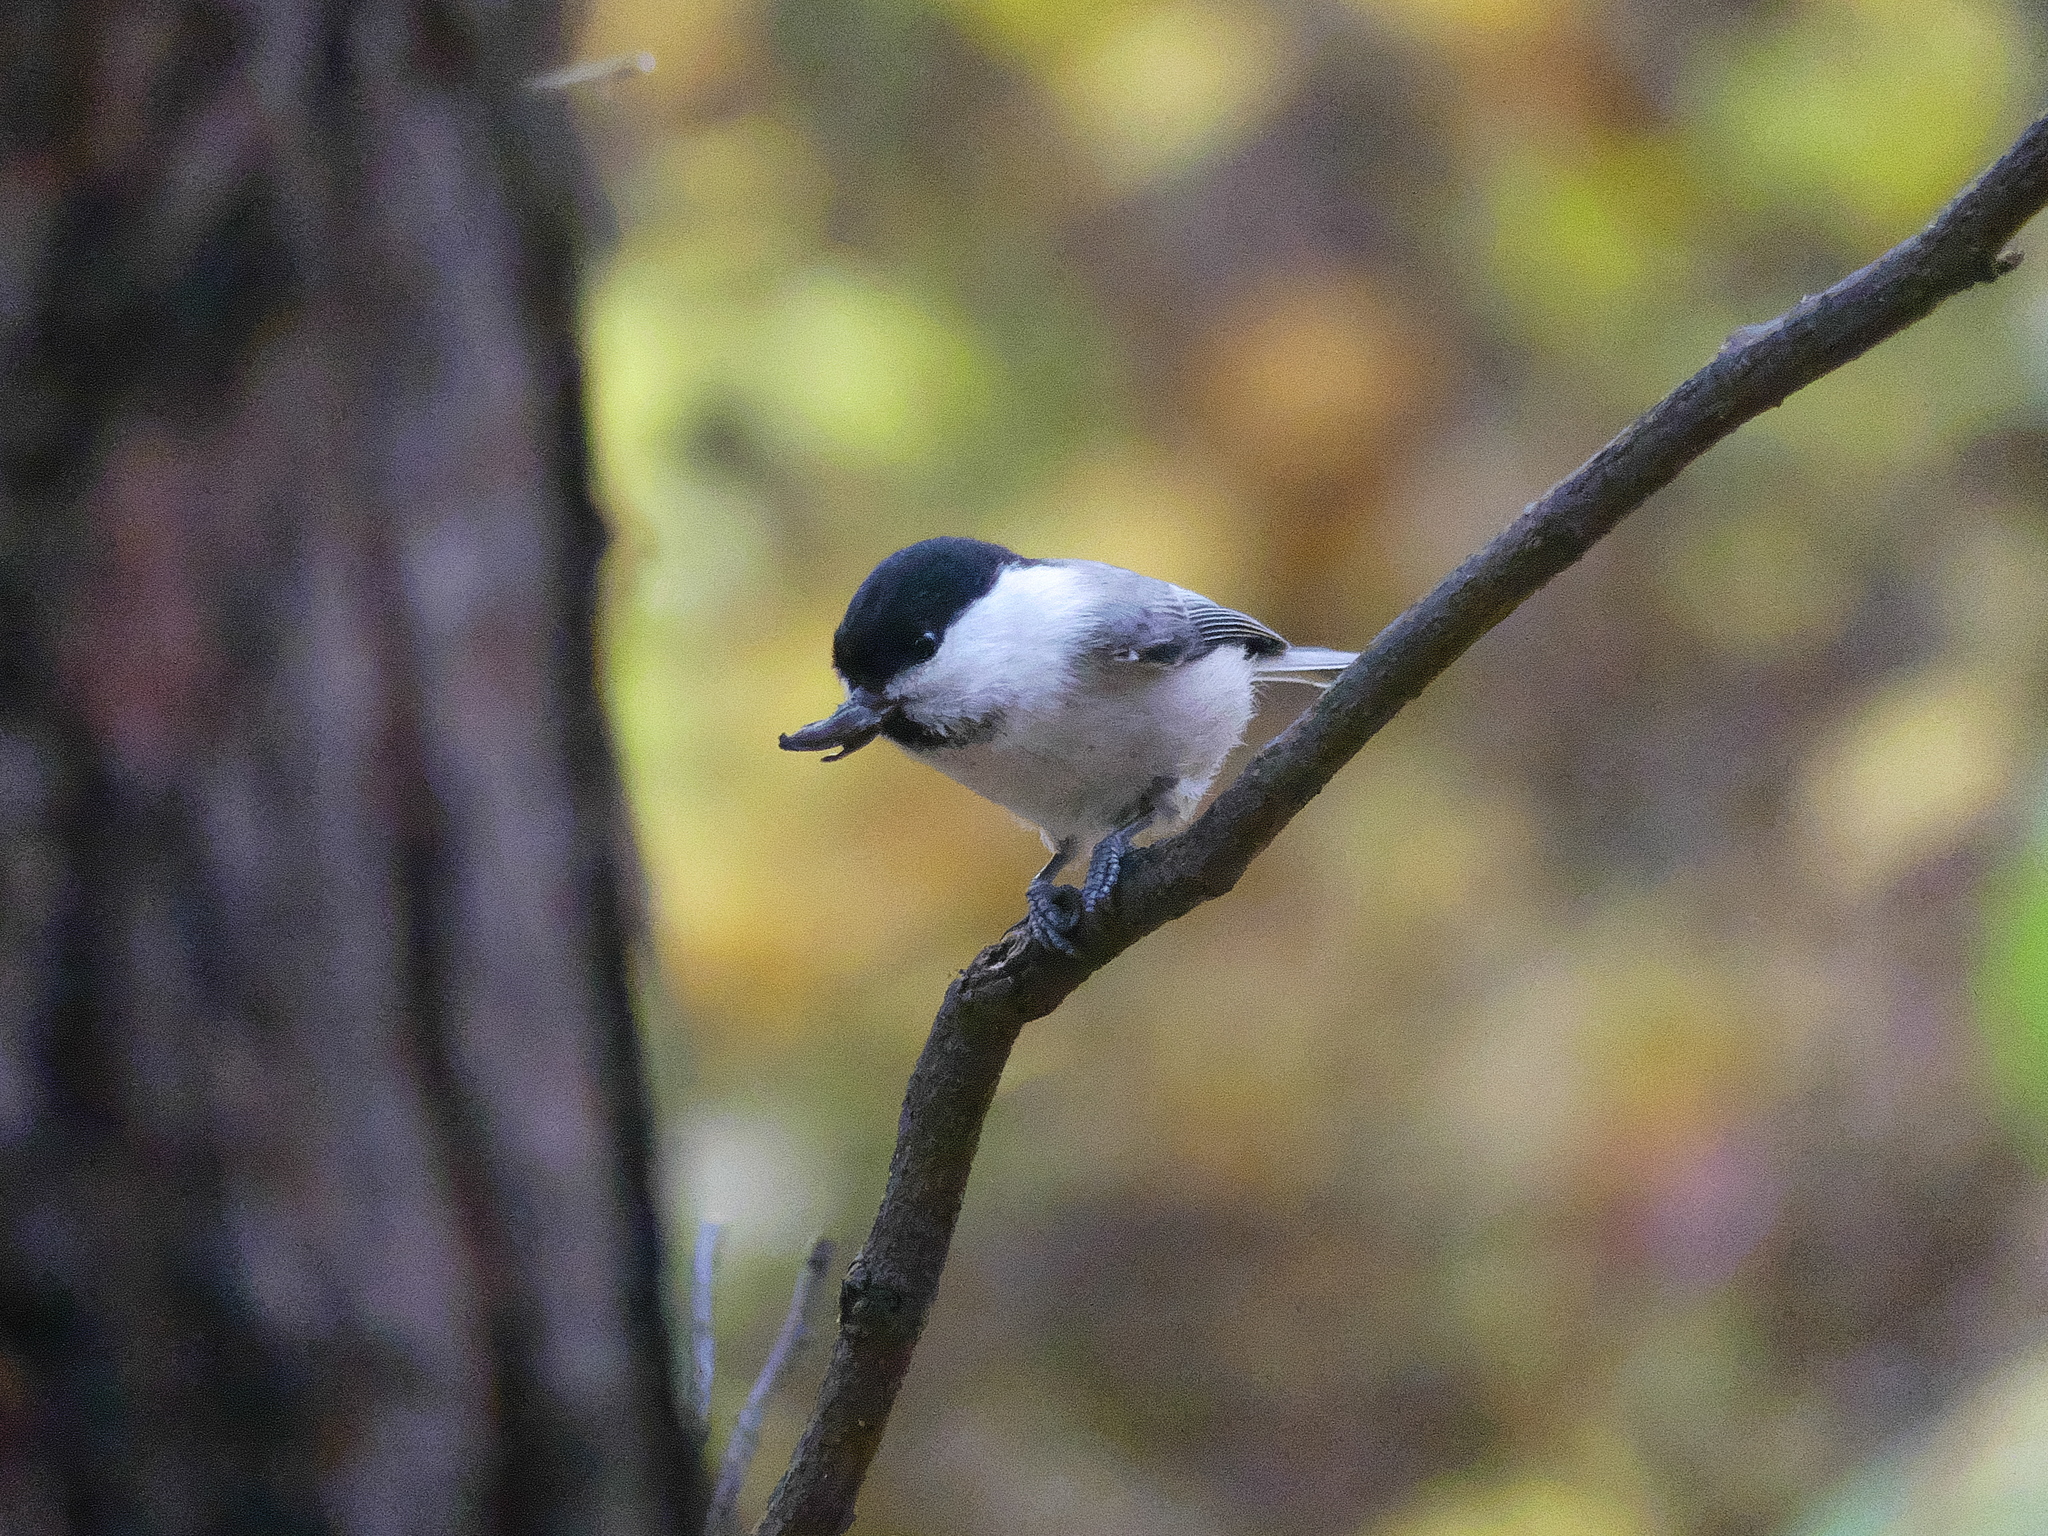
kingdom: Animalia
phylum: Chordata
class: Aves
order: Passeriformes
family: Paridae
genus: Poecile
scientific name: Poecile montanus
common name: Willow tit
